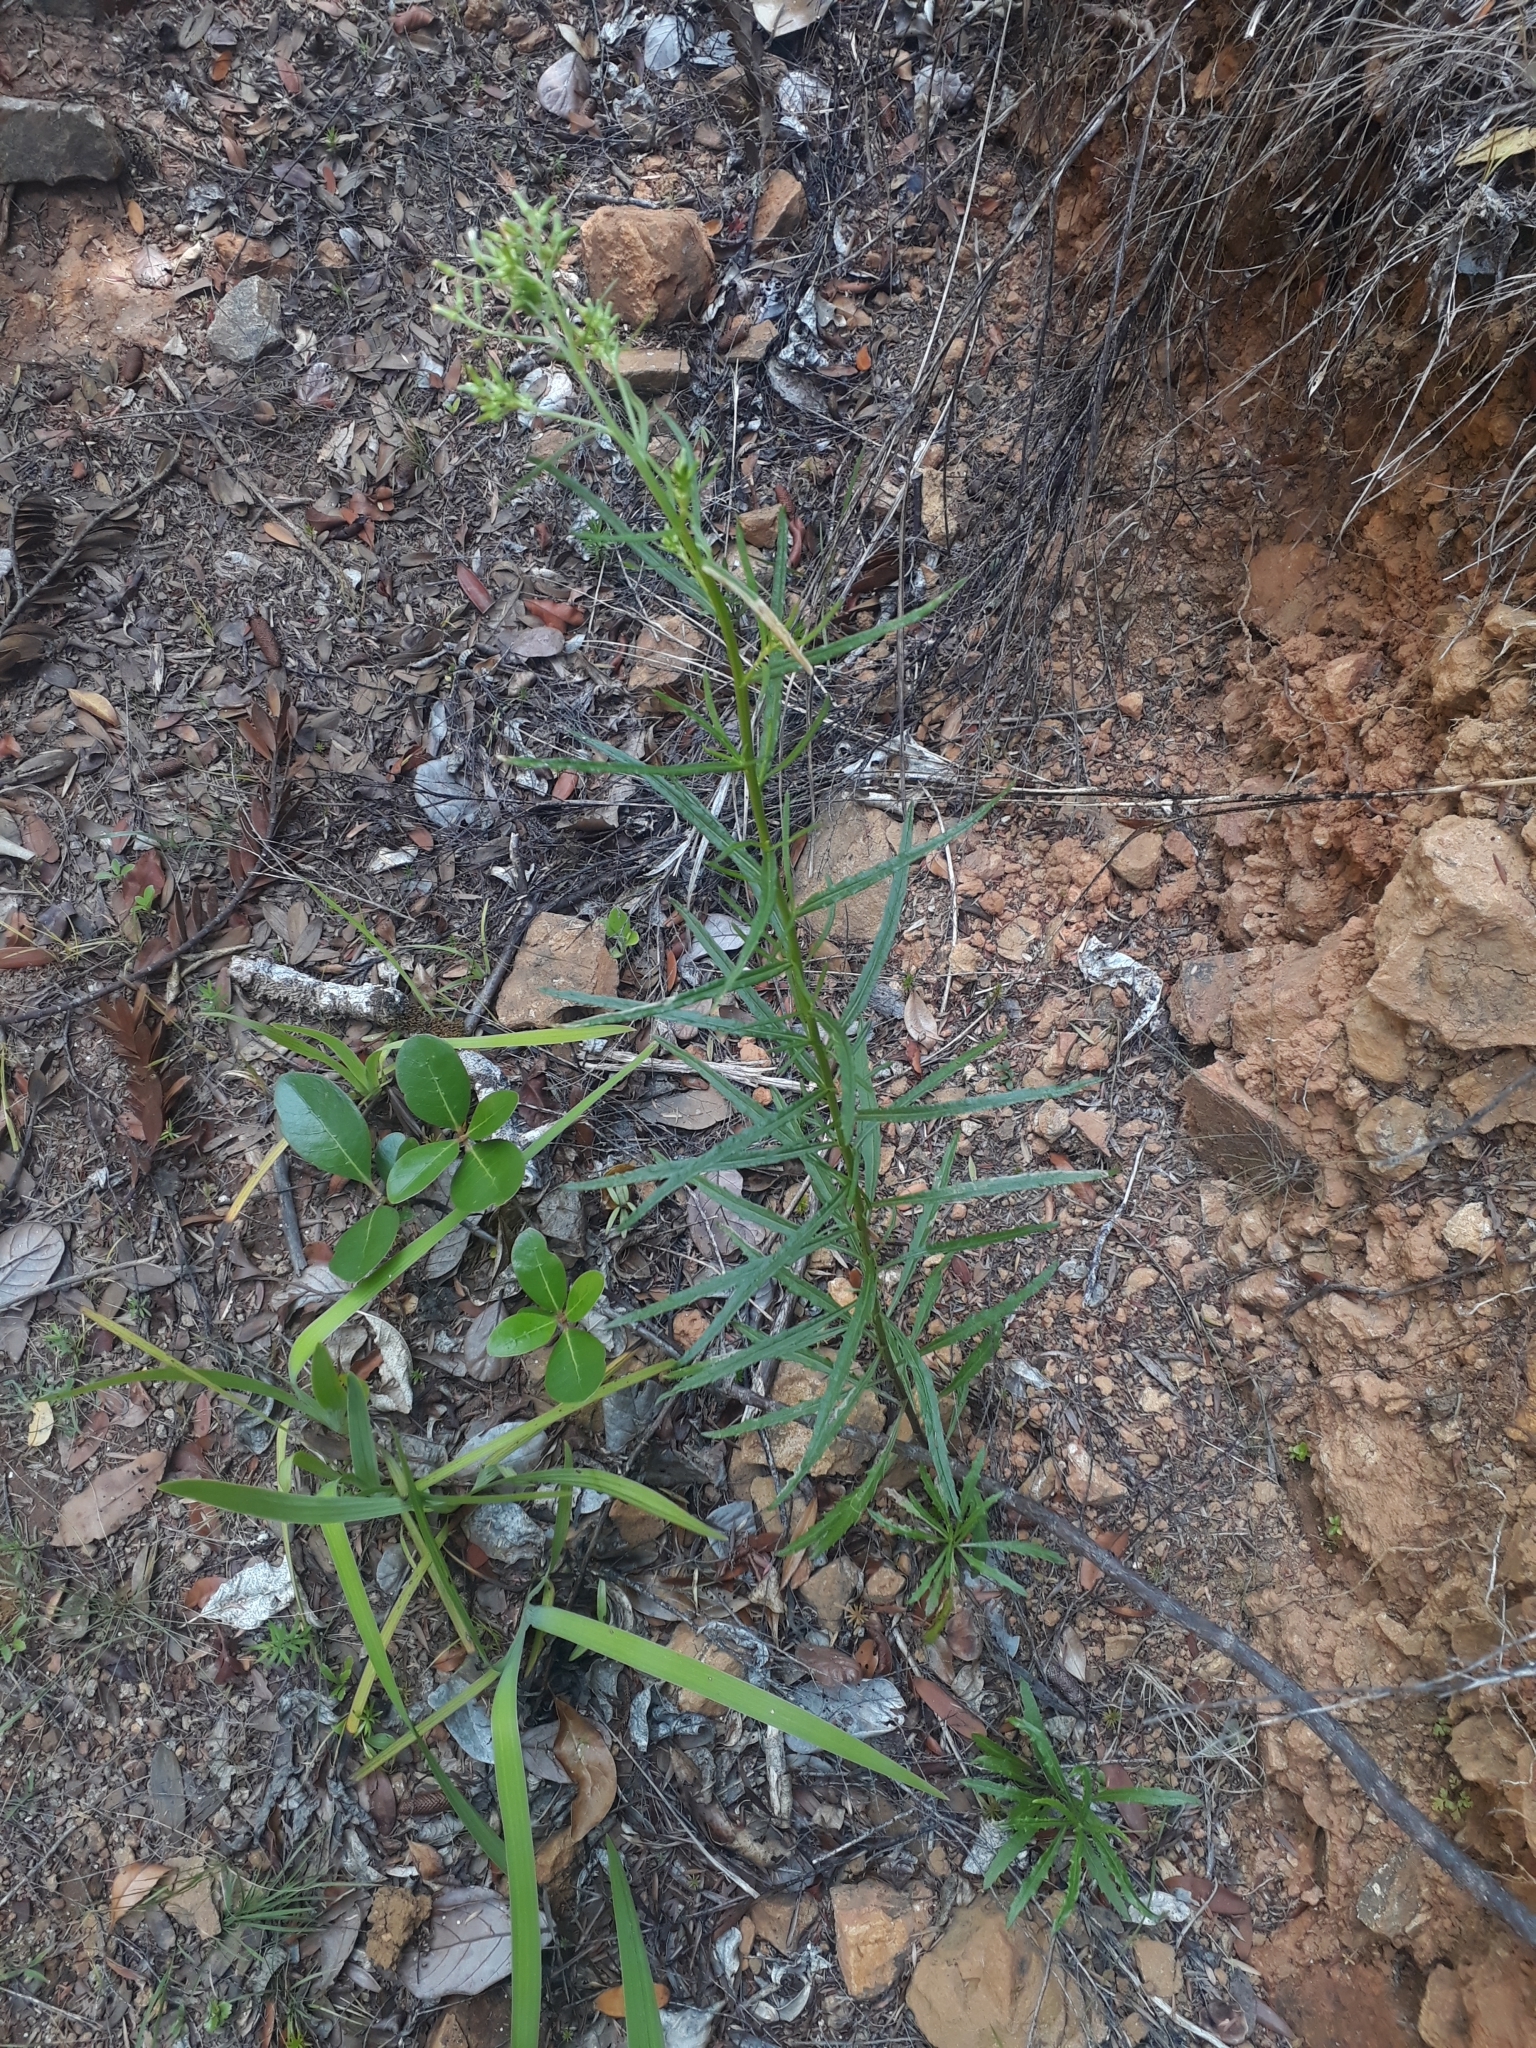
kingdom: Plantae
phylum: Tracheophyta
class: Magnoliopsida
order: Asterales
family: Asteraceae
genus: Senecio
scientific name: Senecio diaschides
